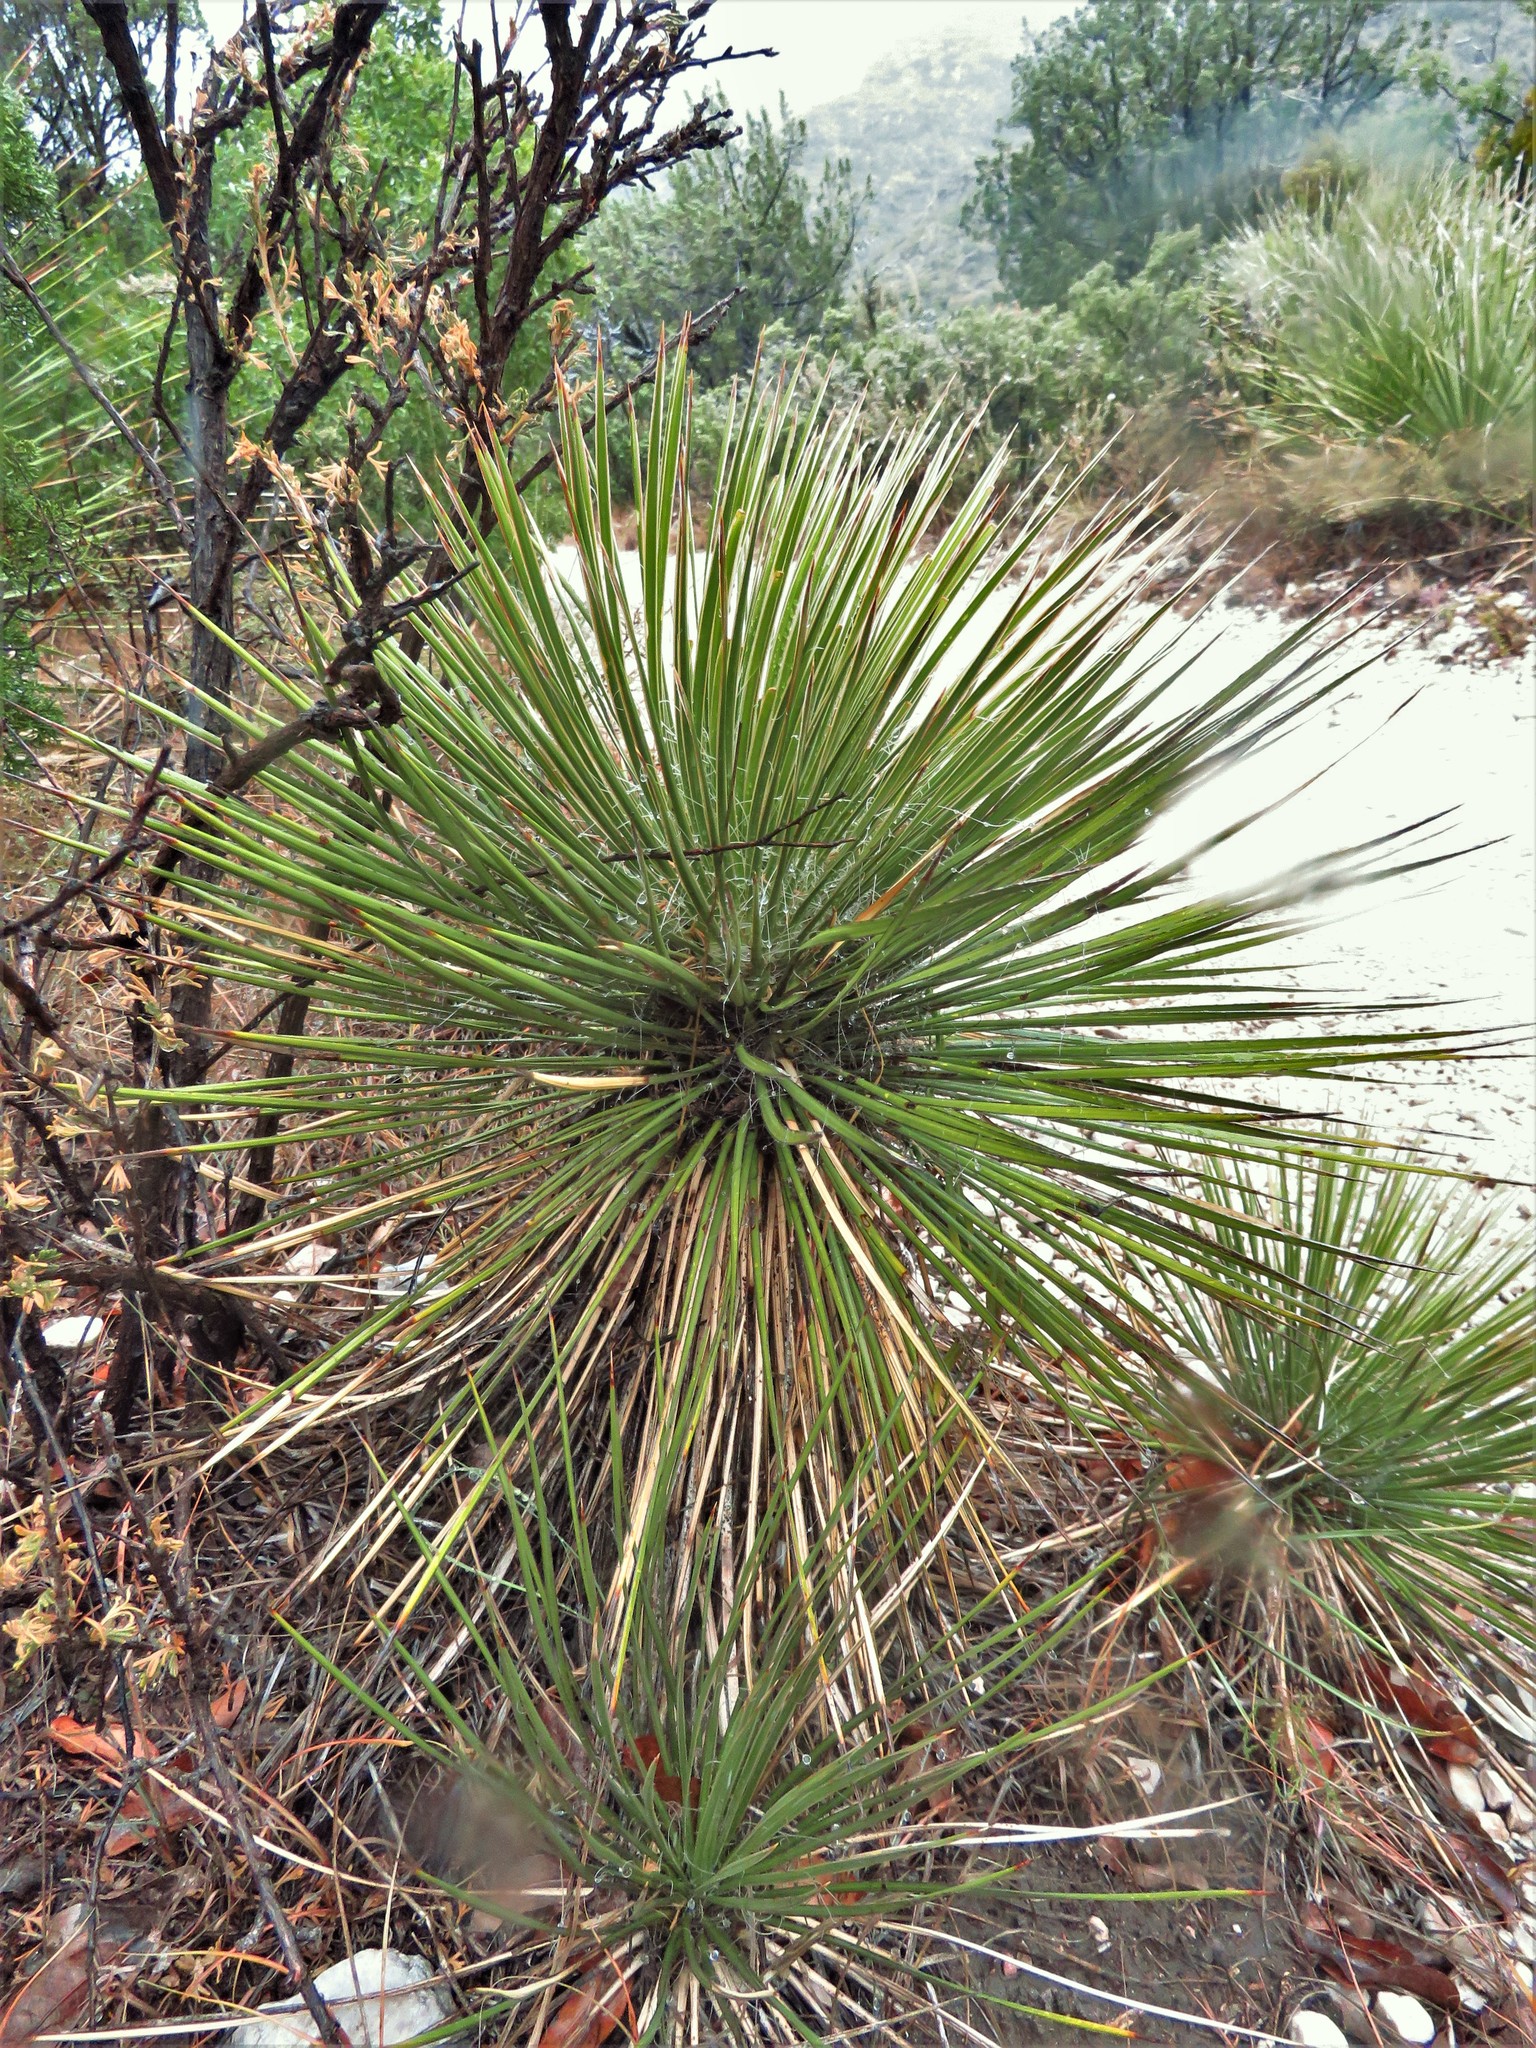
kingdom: Plantae
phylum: Tracheophyta
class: Liliopsida
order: Asparagales
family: Asparagaceae
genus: Yucca
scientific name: Yucca elata
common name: Palmella
